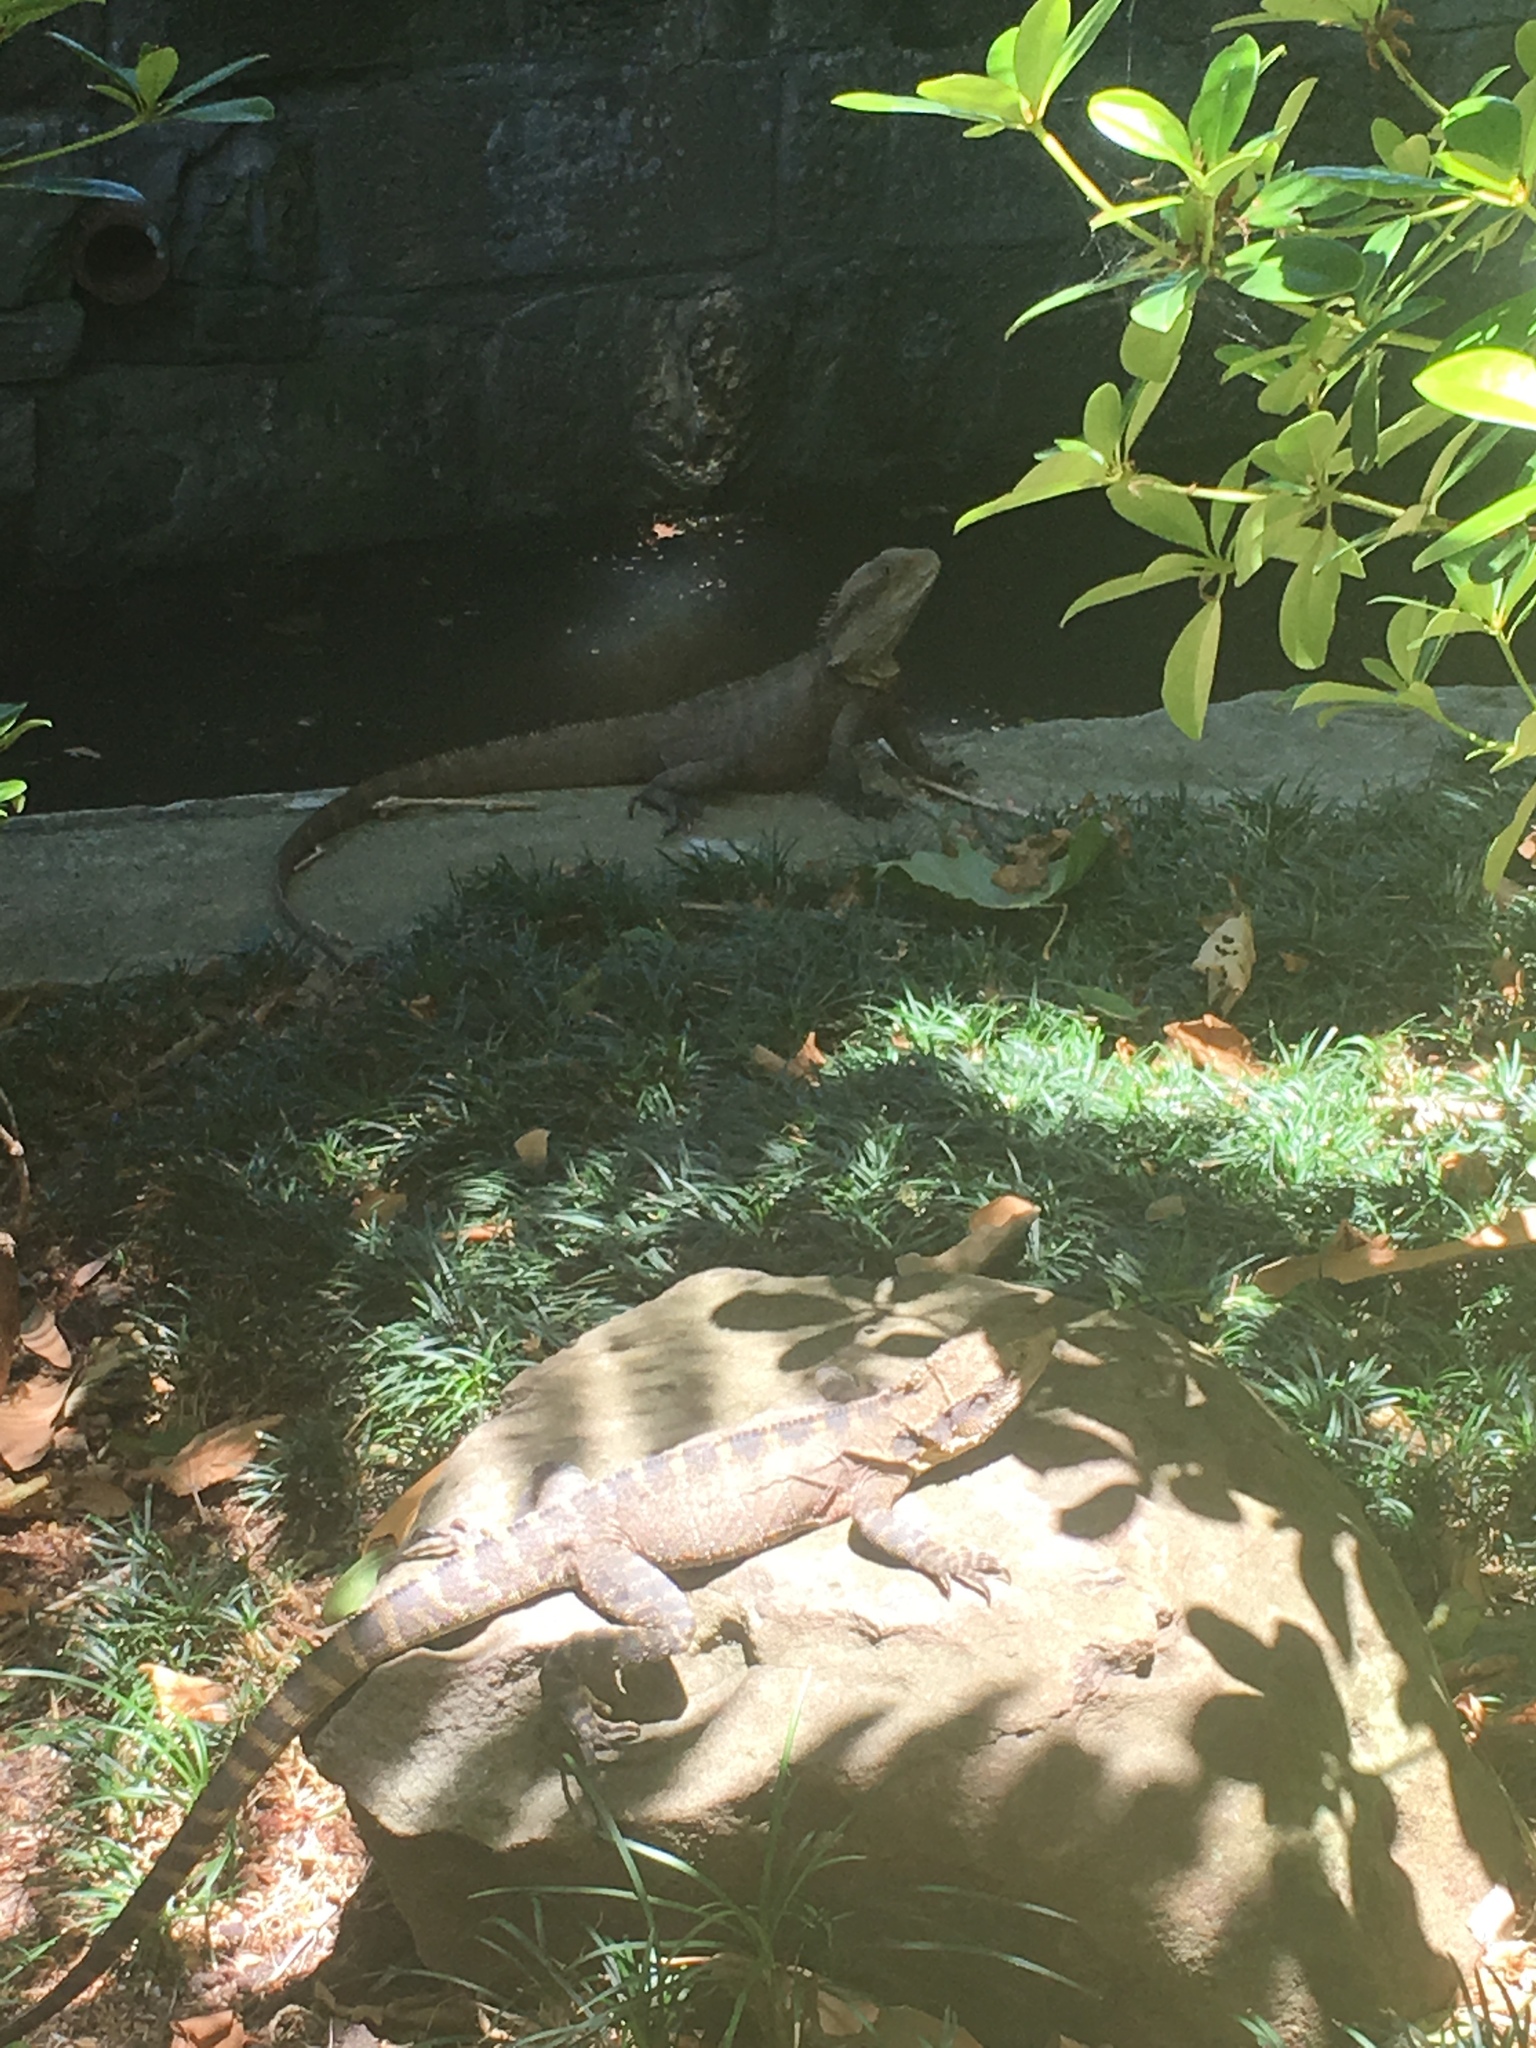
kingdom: Animalia
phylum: Chordata
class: Squamata
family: Agamidae
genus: Intellagama
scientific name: Intellagama lesueurii
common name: Eastern water dragon
